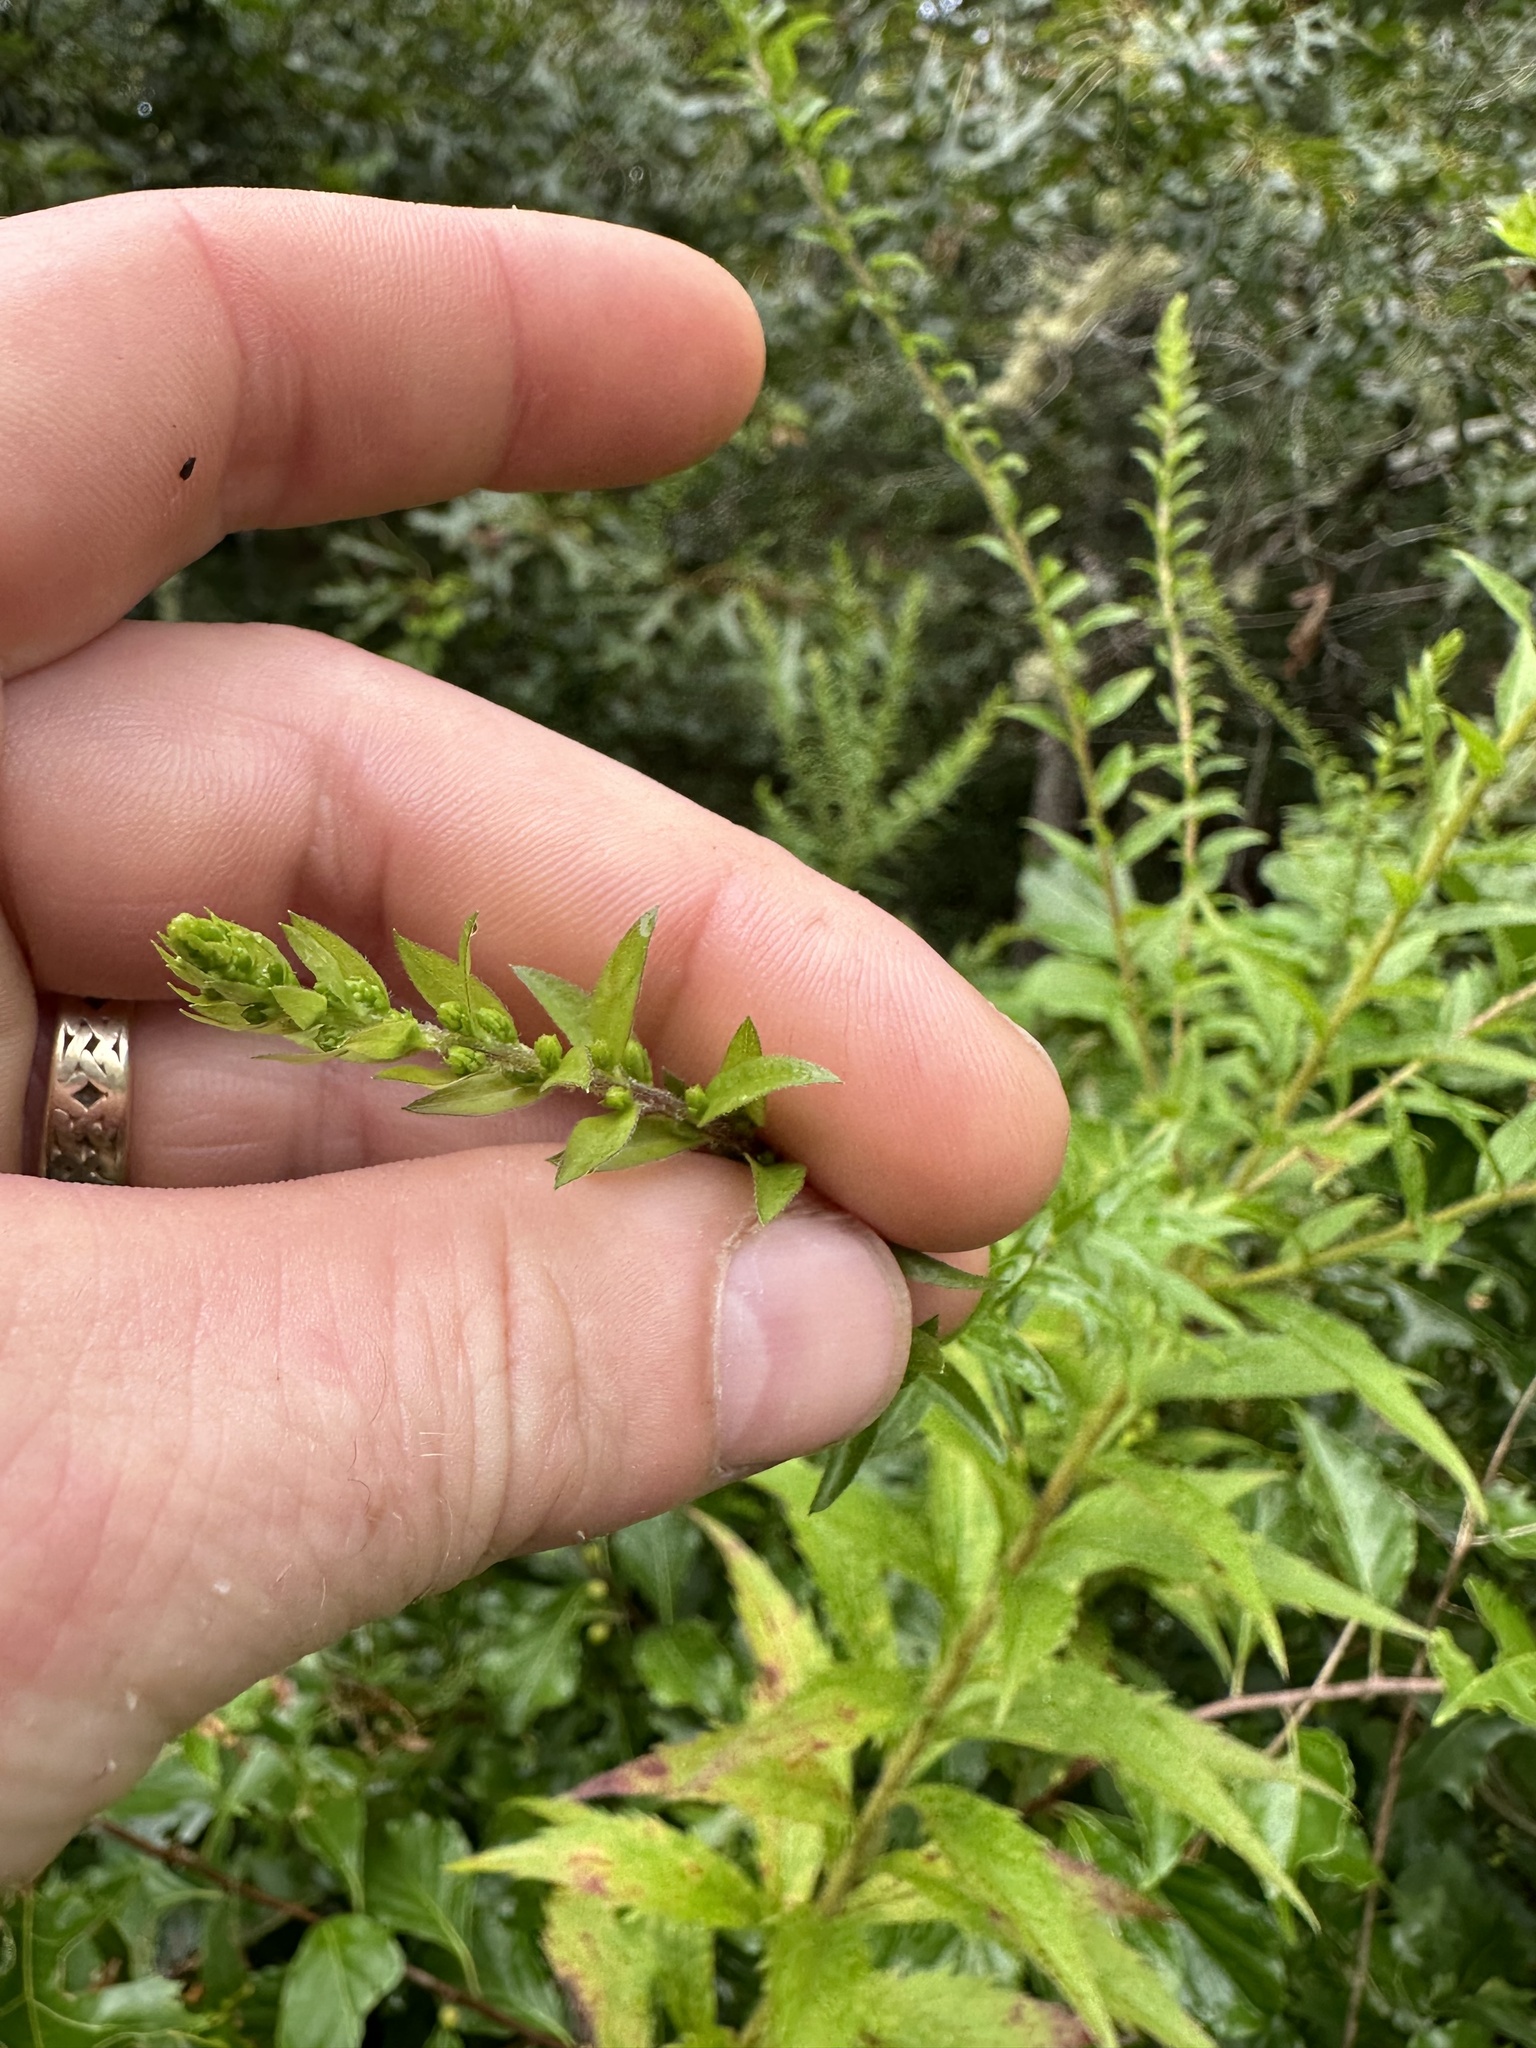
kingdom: Plantae
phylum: Tracheophyta
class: Magnoliopsida
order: Asterales
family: Asteraceae
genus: Solidago
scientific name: Solidago rugosa
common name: Rough-stemmed goldenrod
